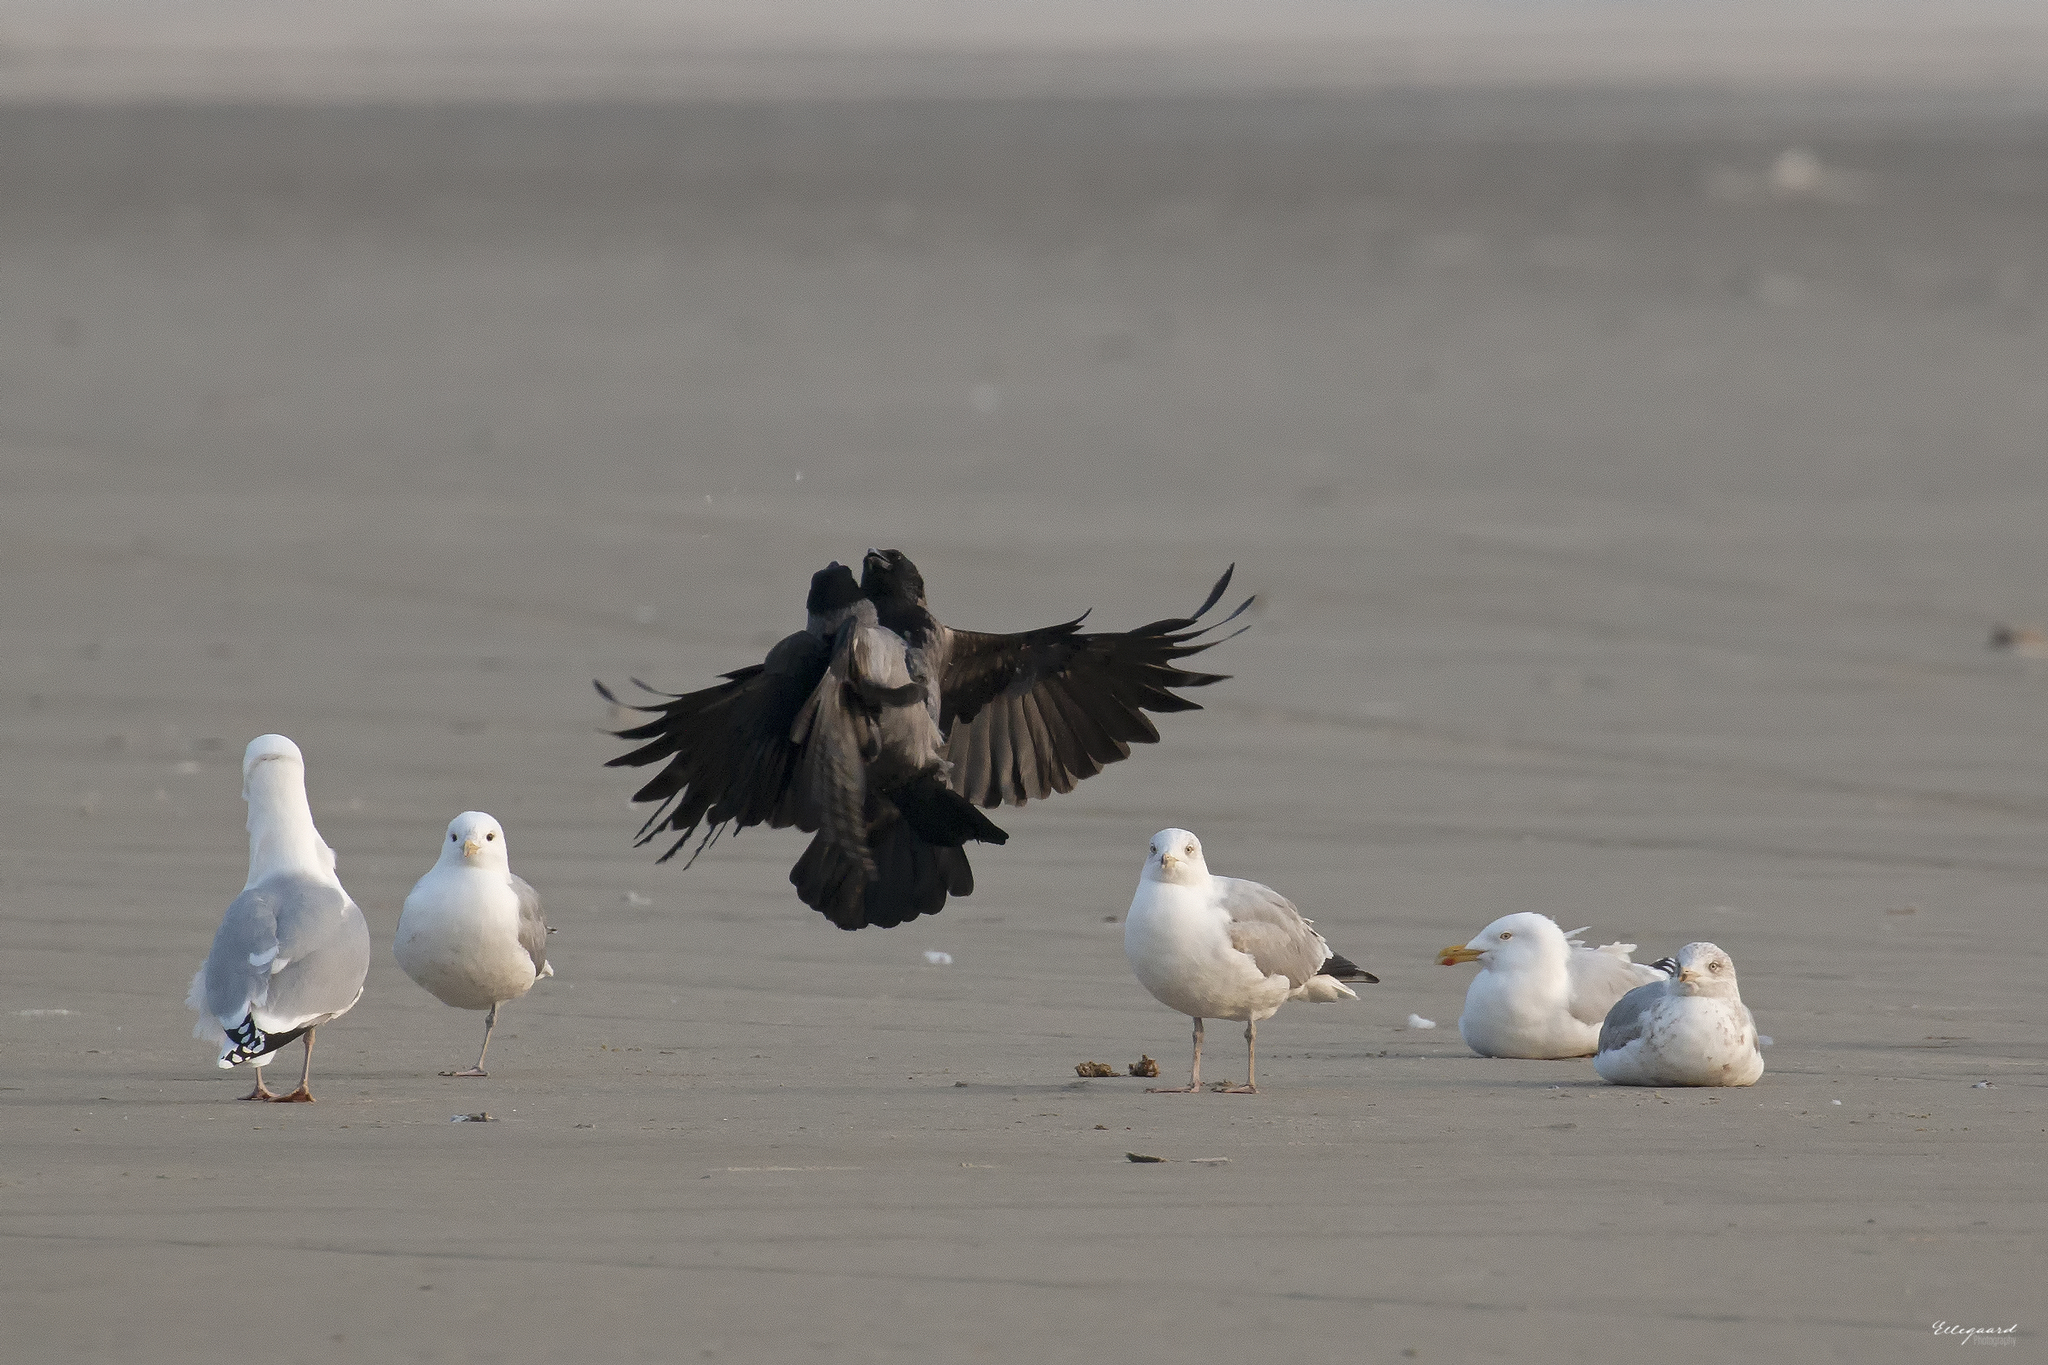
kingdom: Animalia
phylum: Chordata
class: Aves
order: Passeriformes
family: Corvidae
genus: Corvus
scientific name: Corvus cornix
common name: Hooded crow
